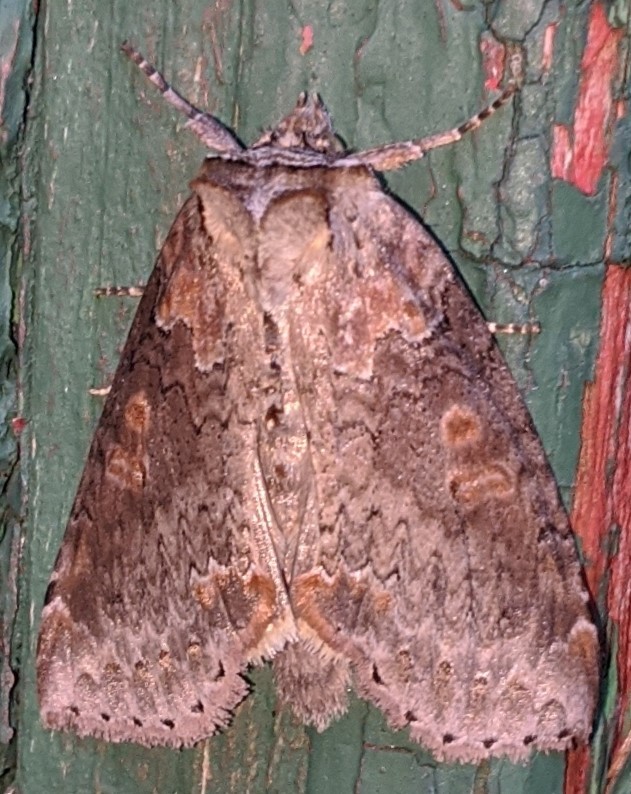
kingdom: Animalia
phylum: Arthropoda
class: Insecta
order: Lepidoptera
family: Drepanidae
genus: Pseudothyatira
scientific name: Pseudothyatira cymatophoroides
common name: Tufted thyatirid moth
